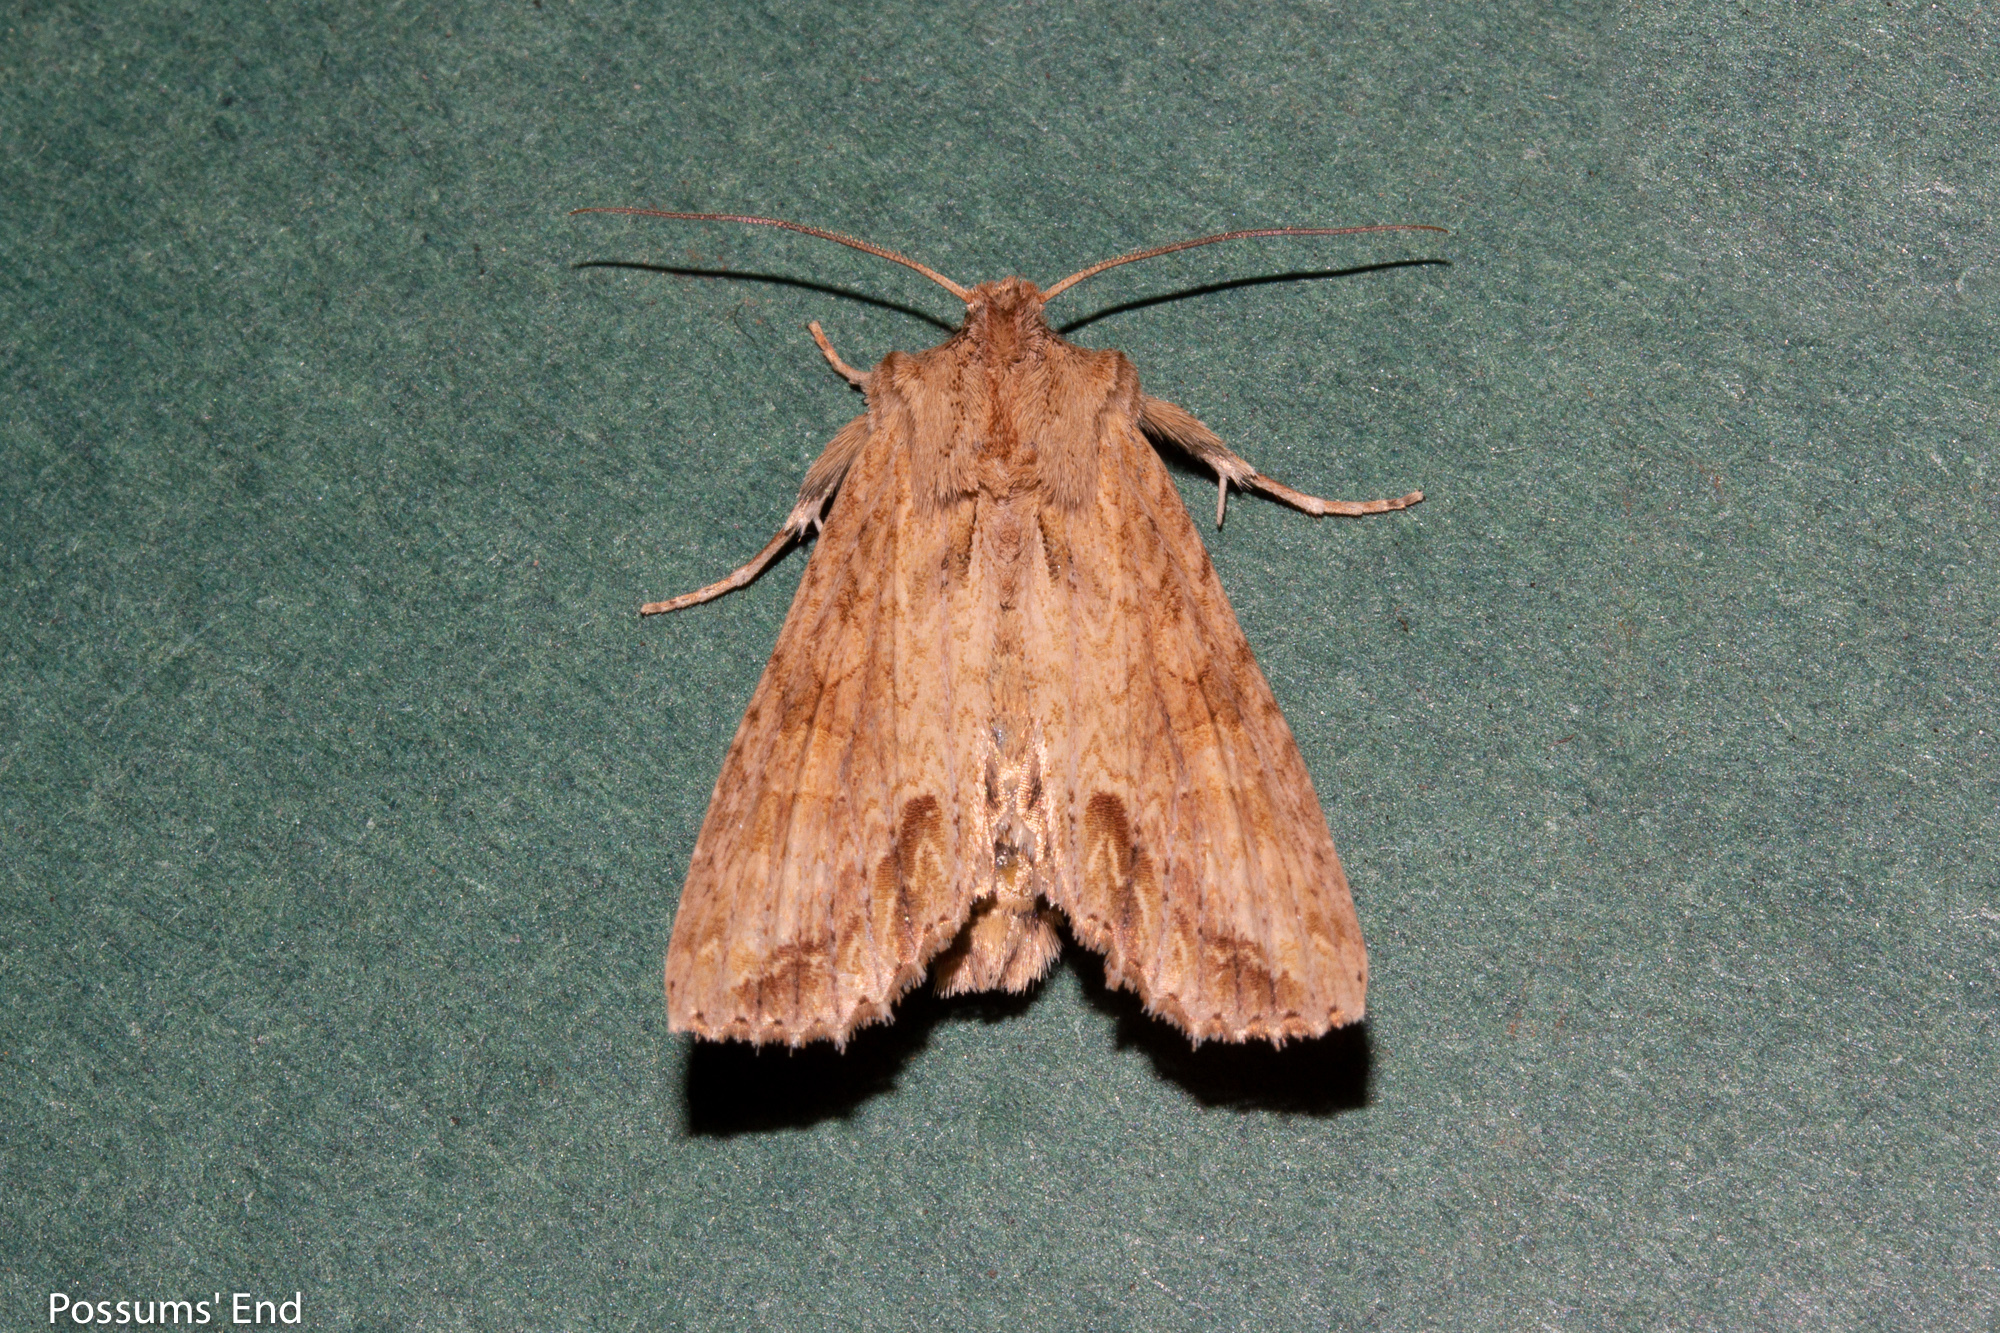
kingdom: Animalia
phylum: Arthropoda
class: Insecta
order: Lepidoptera
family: Noctuidae
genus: Ichneutica
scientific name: Ichneutica mollis
